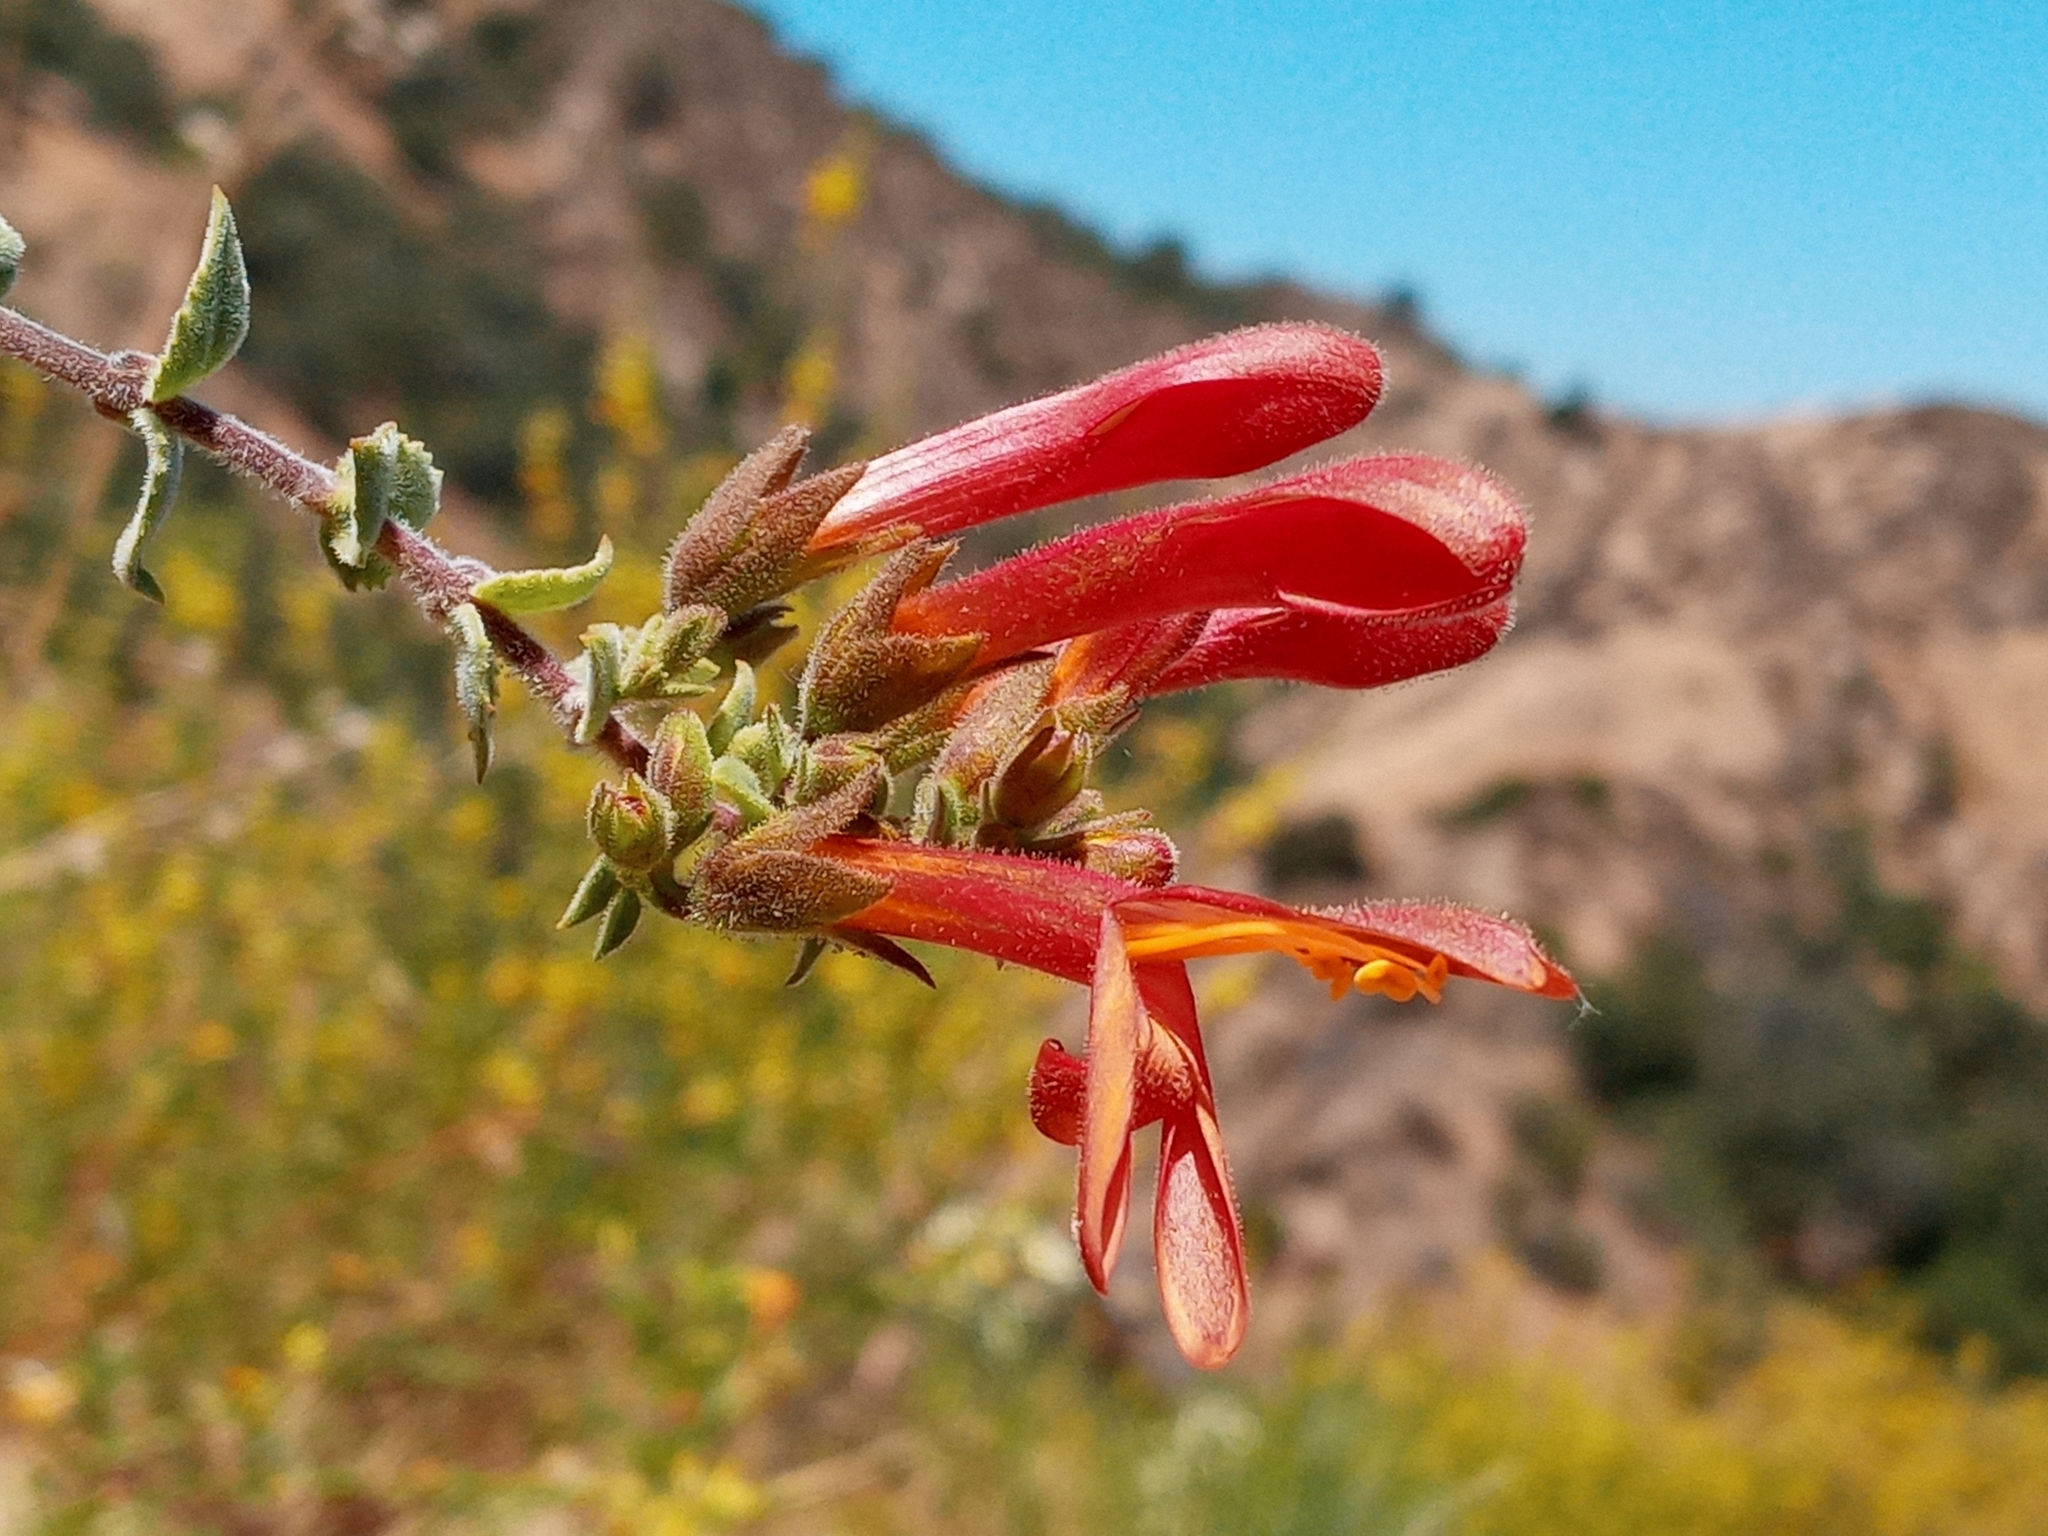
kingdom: Plantae
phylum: Tracheophyta
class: Magnoliopsida
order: Lamiales
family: Plantaginaceae
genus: Keckiella
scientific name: Keckiella cordifolia
